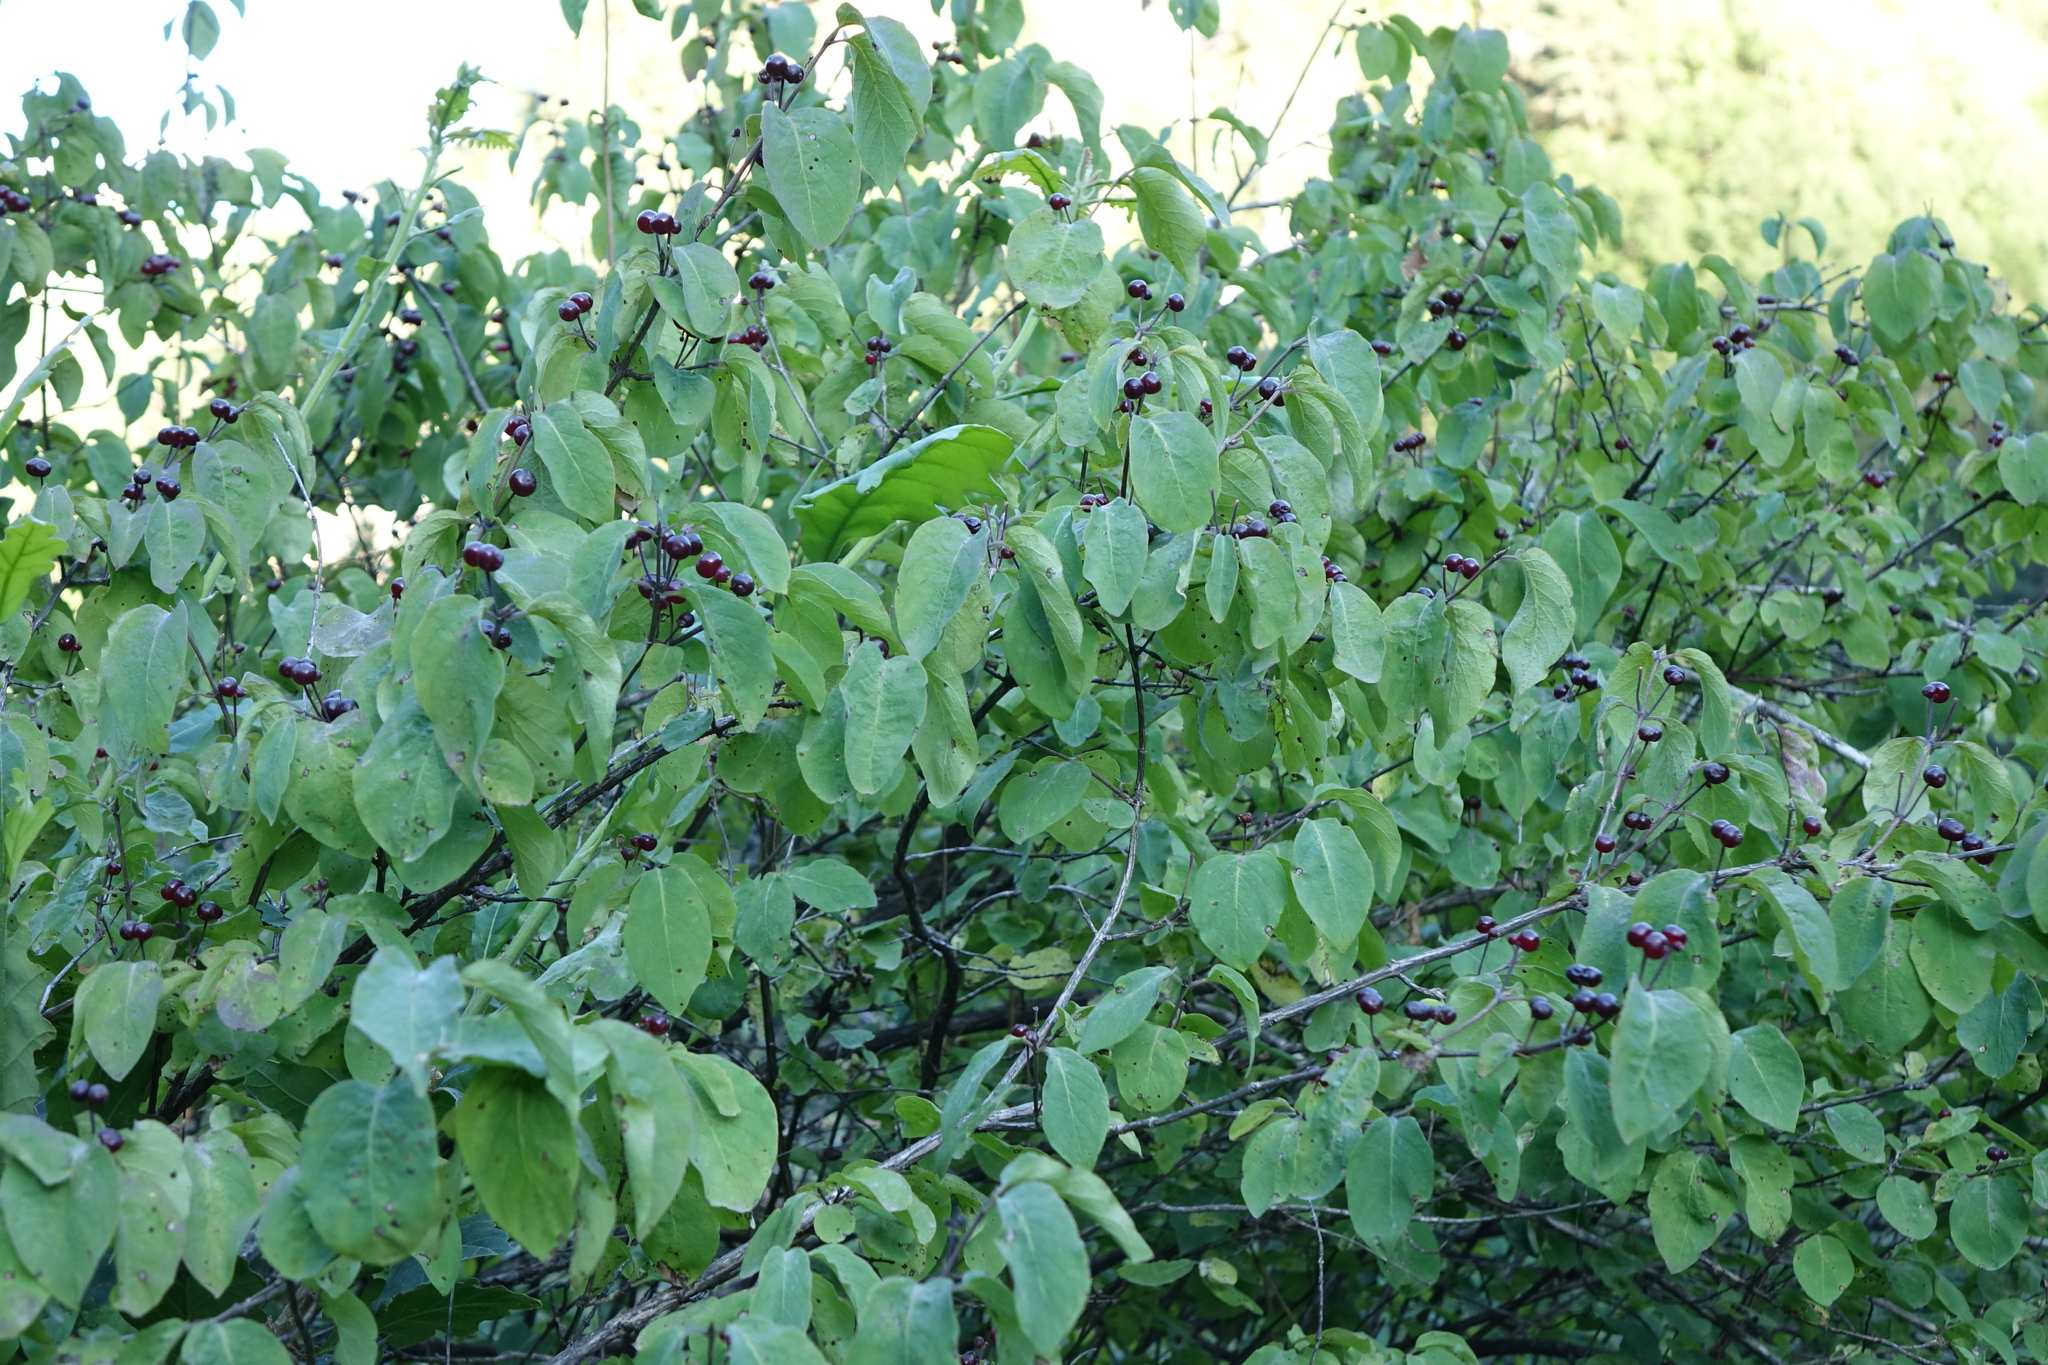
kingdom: Plantae
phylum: Tracheophyta
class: Magnoliopsida
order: Dipsacales
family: Caprifoliaceae
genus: Lonicera
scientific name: Lonicera steveniana
